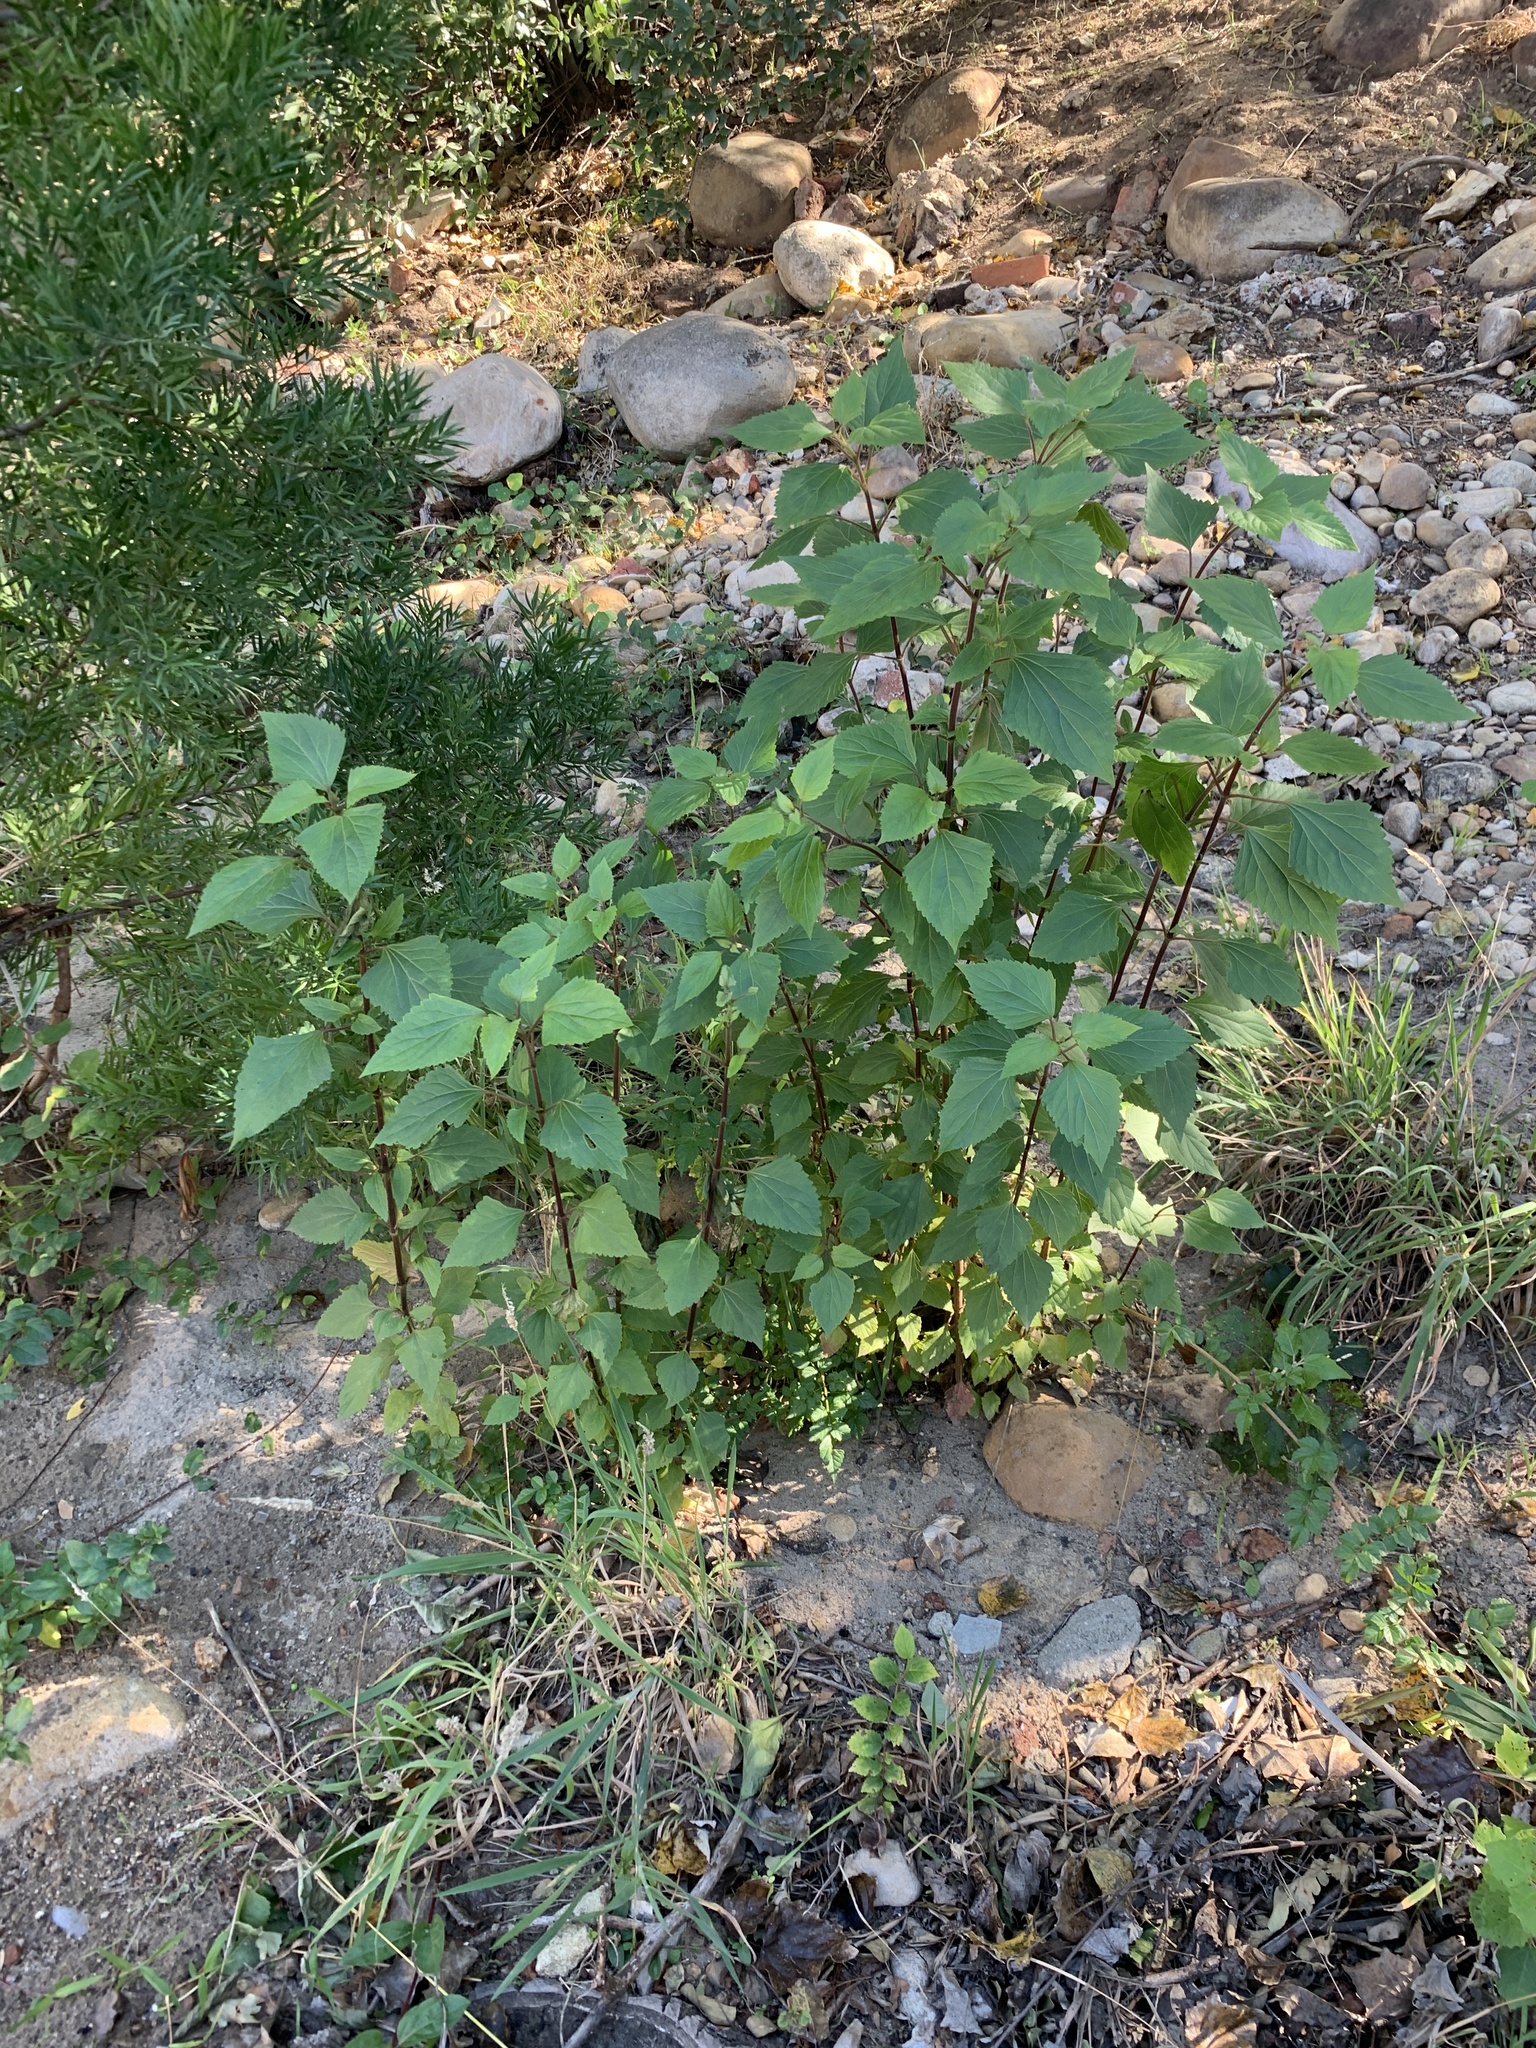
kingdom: Plantae
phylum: Tracheophyta
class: Magnoliopsida
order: Asterales
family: Asteraceae
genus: Ageratina
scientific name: Ageratina adenophora
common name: Sticky snakeroot
